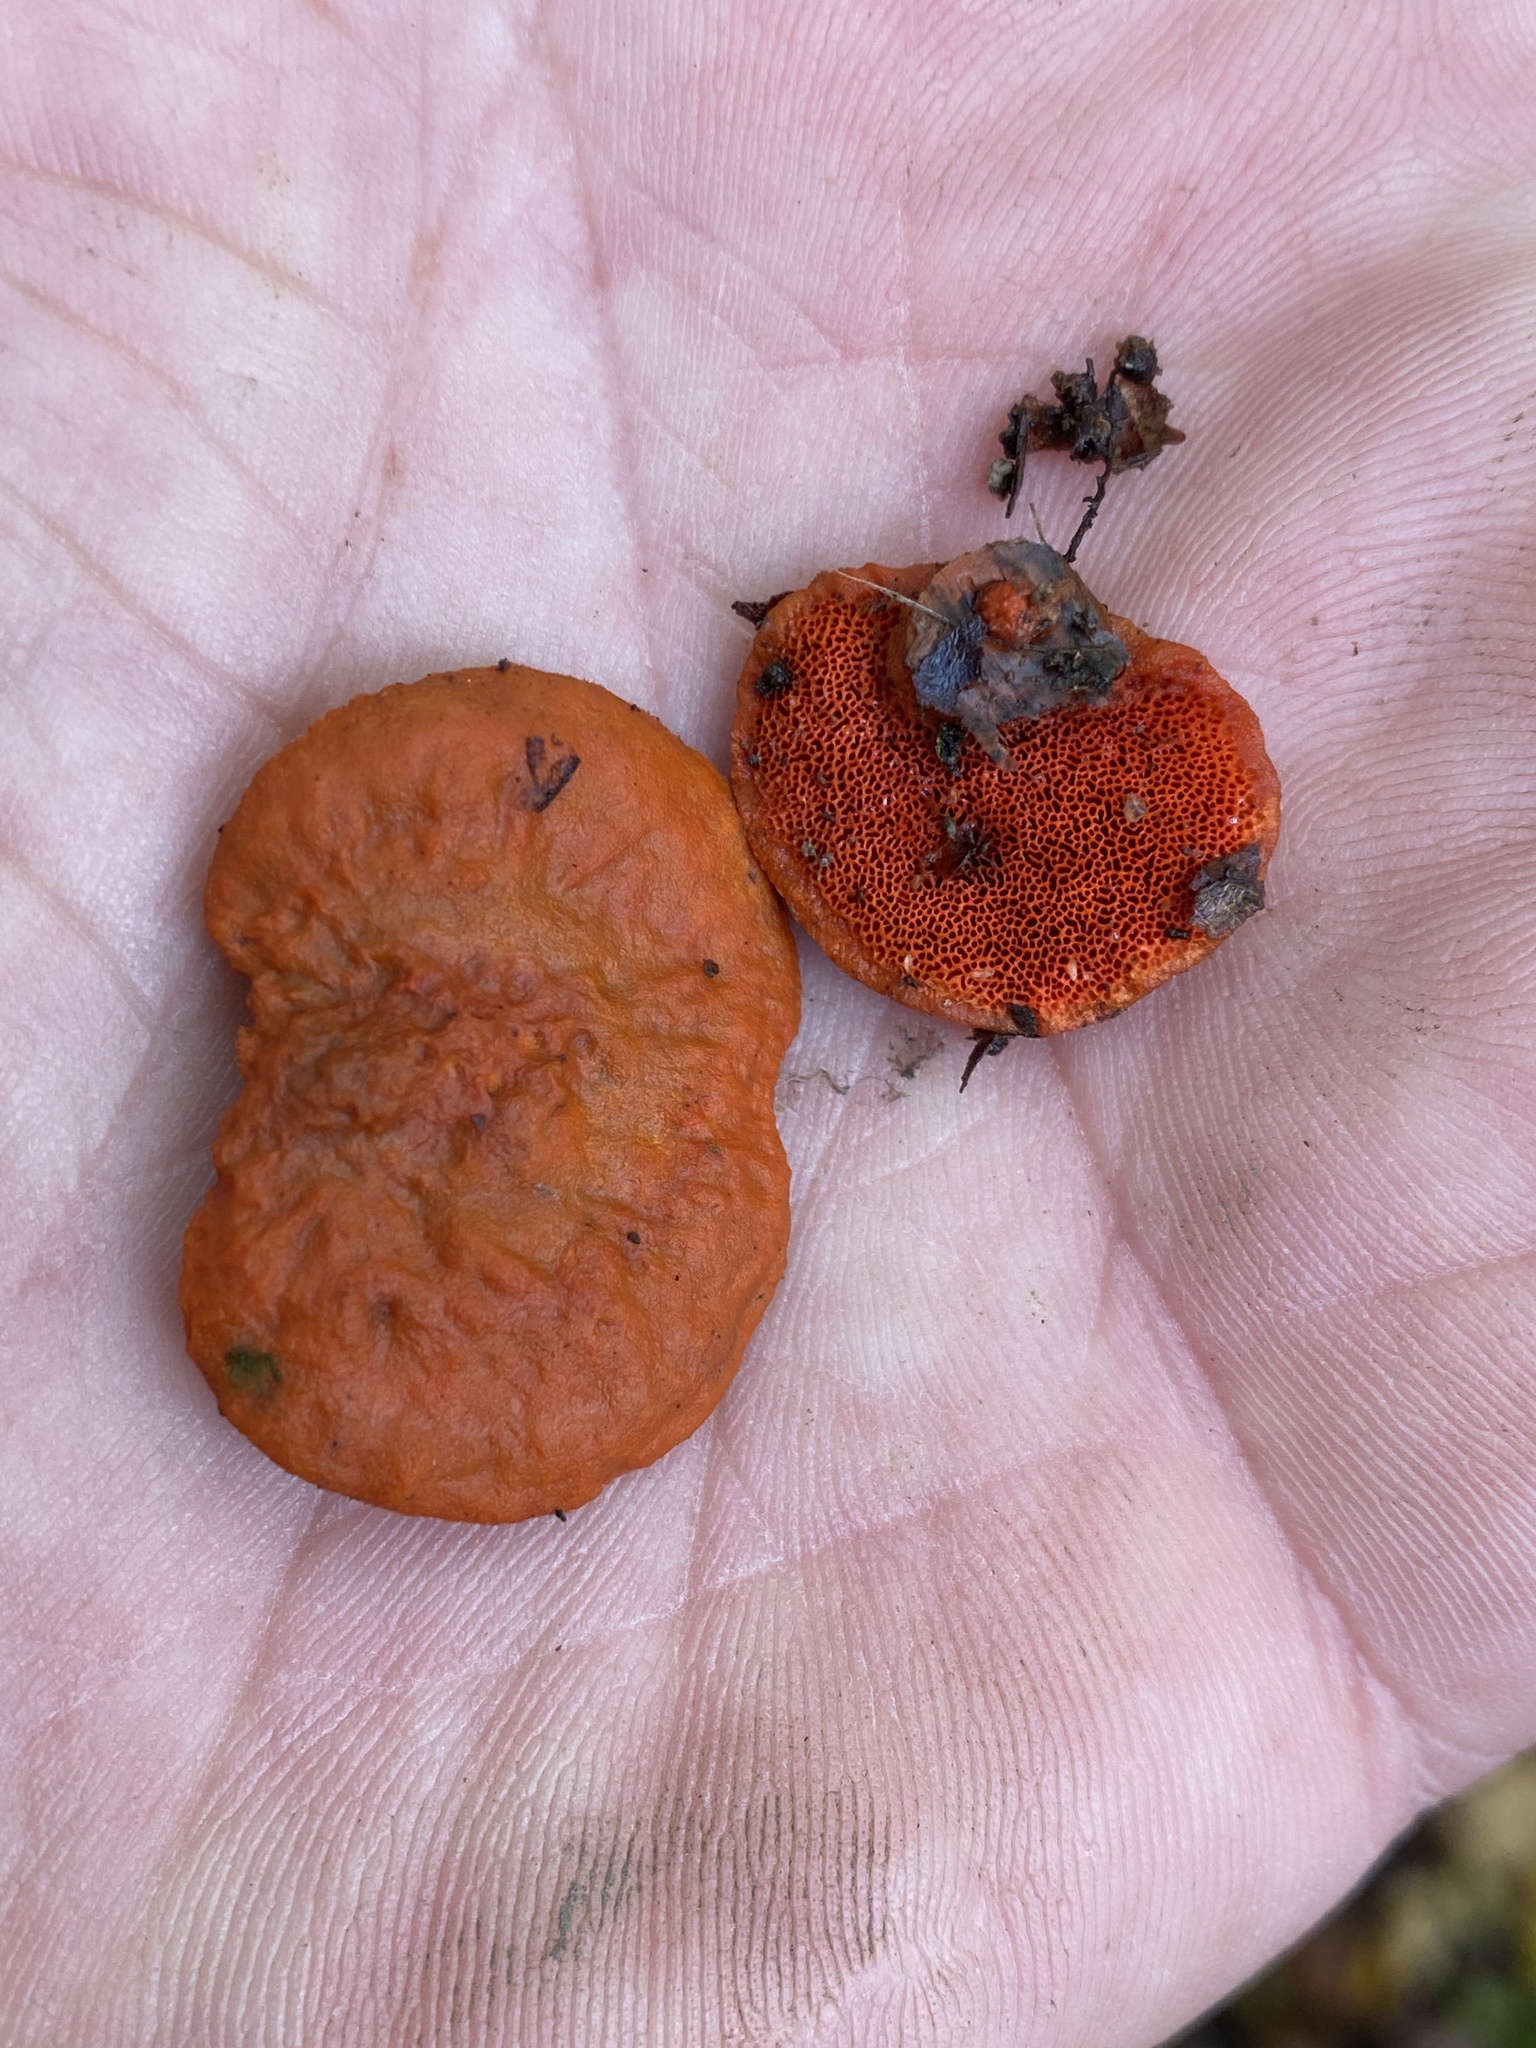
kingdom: Fungi
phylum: Basidiomycota
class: Agaricomycetes
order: Polyporales
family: Polyporaceae
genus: Trametes
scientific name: Trametes cinnabarina
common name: Northern cinnabar polypore
